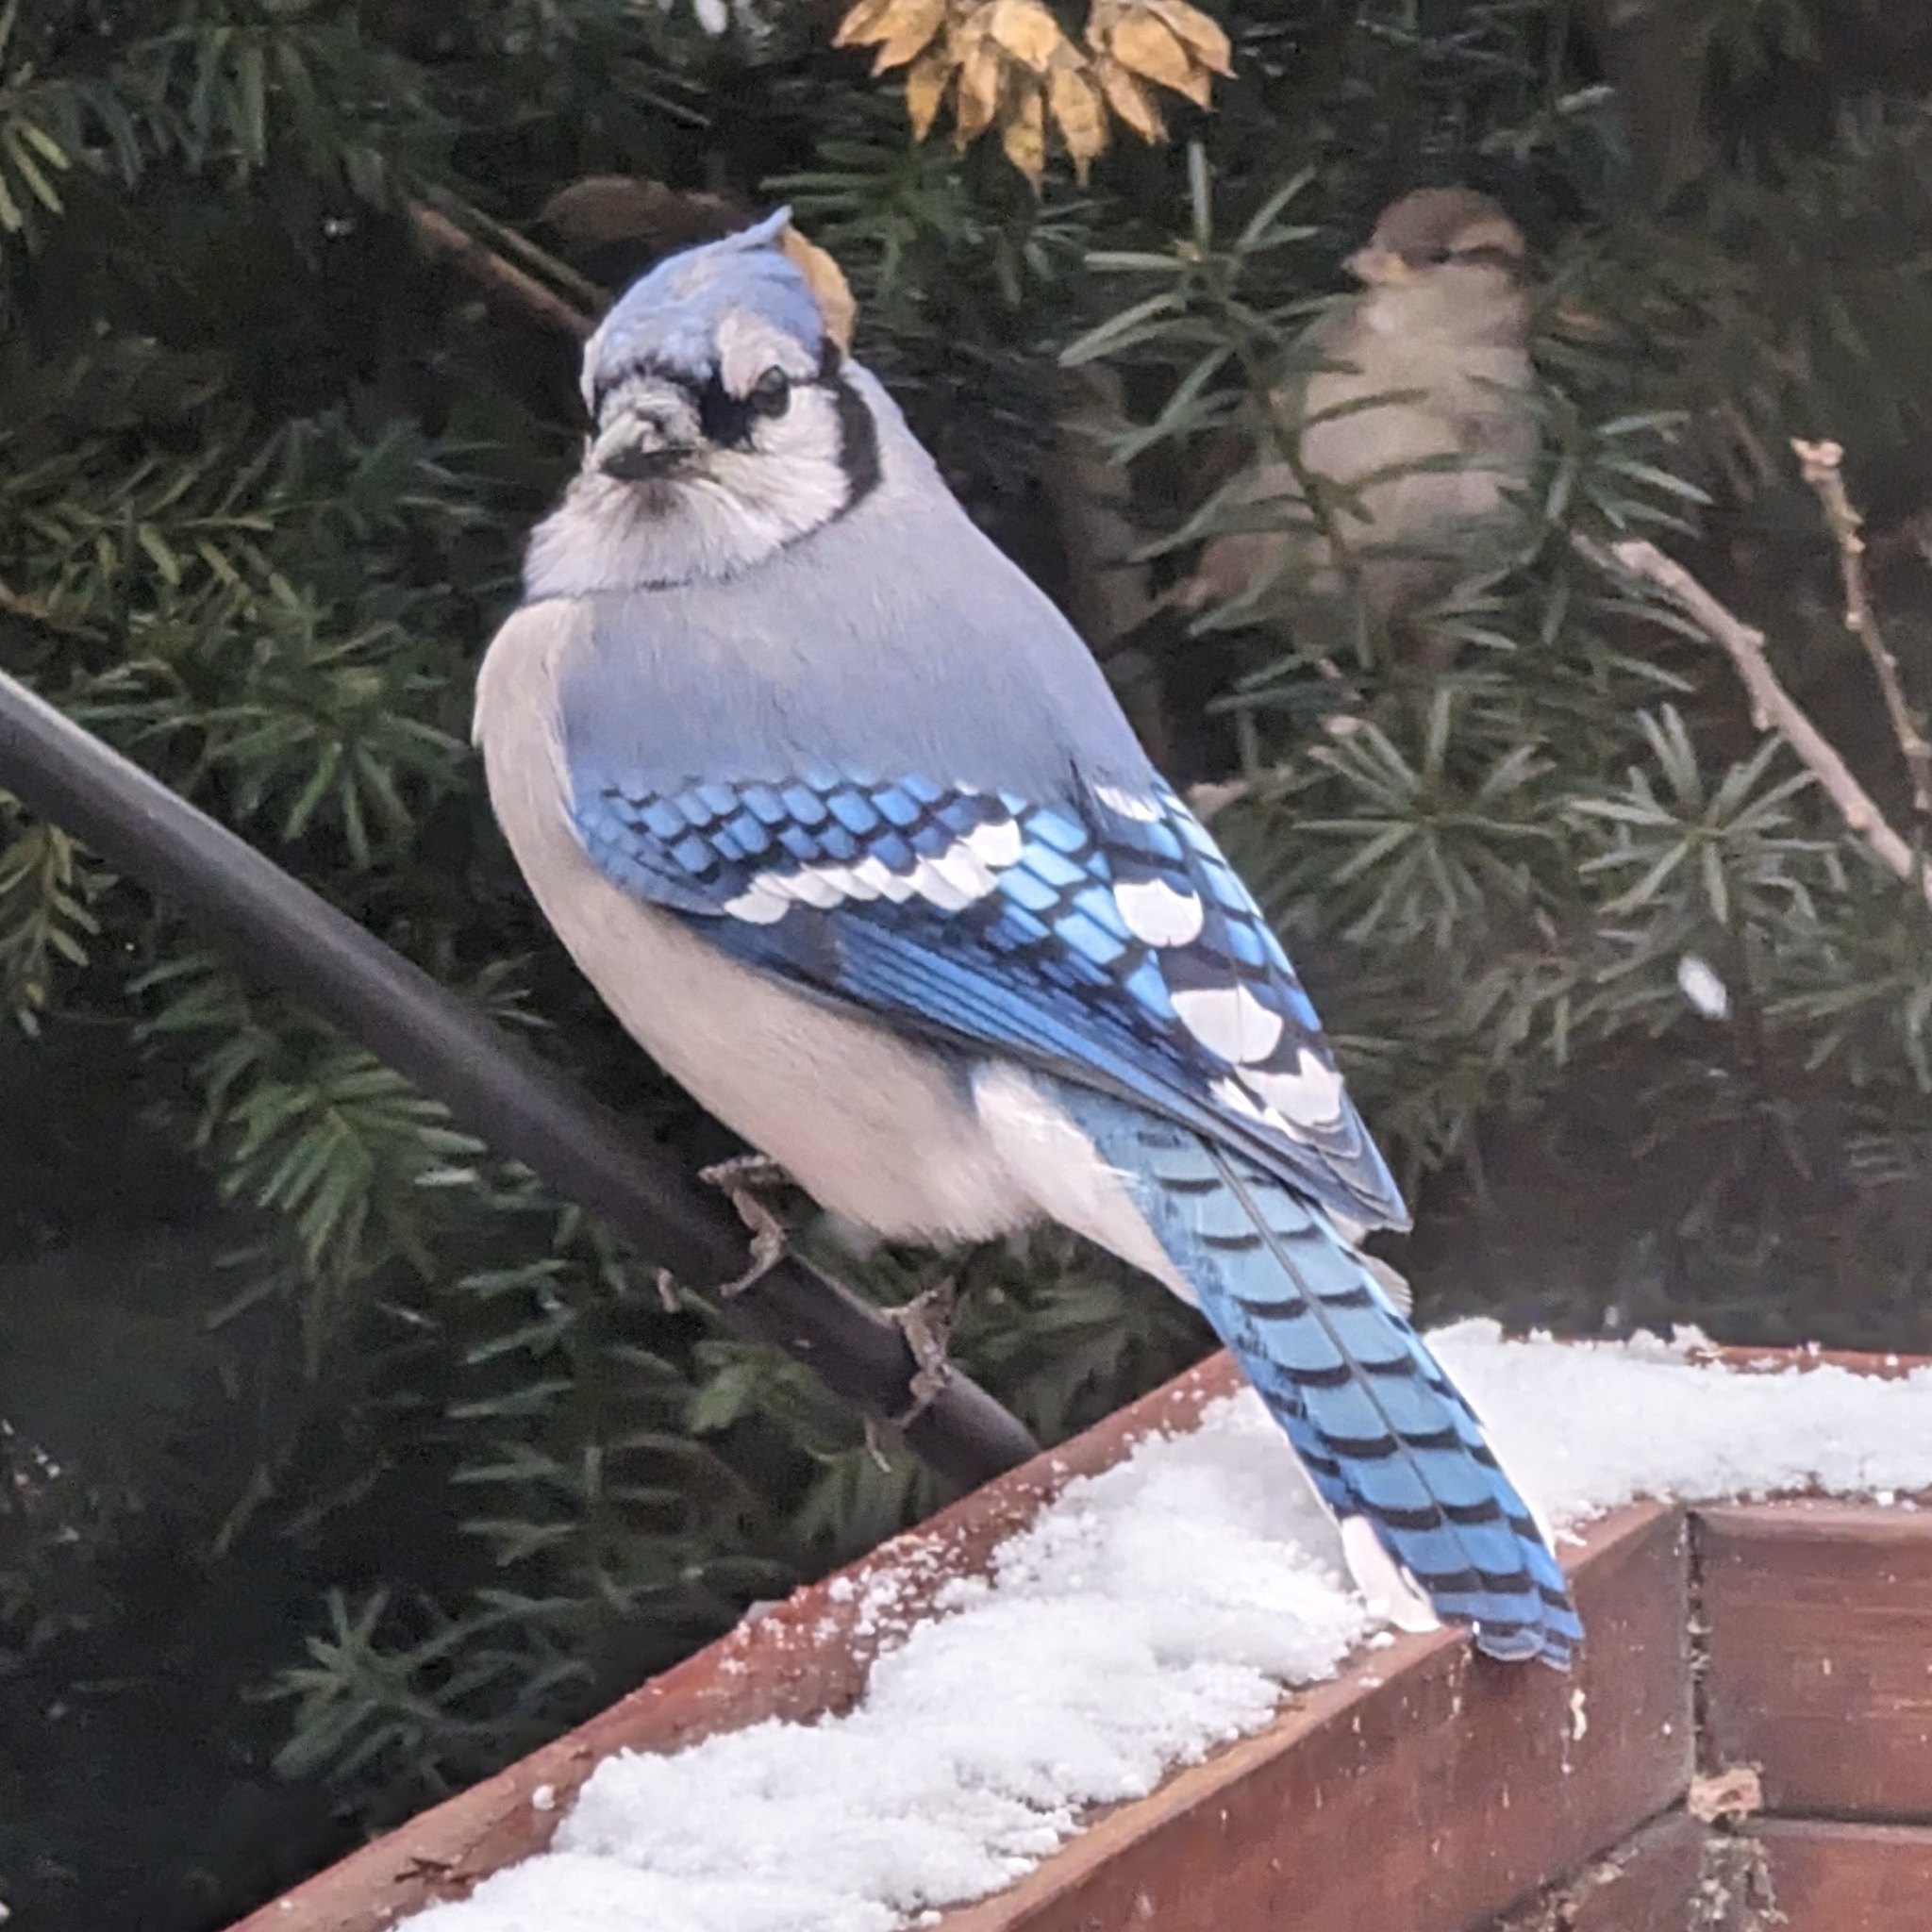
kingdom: Animalia
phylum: Chordata
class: Aves
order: Passeriformes
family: Corvidae
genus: Cyanocitta
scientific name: Cyanocitta cristata
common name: Blue jay
